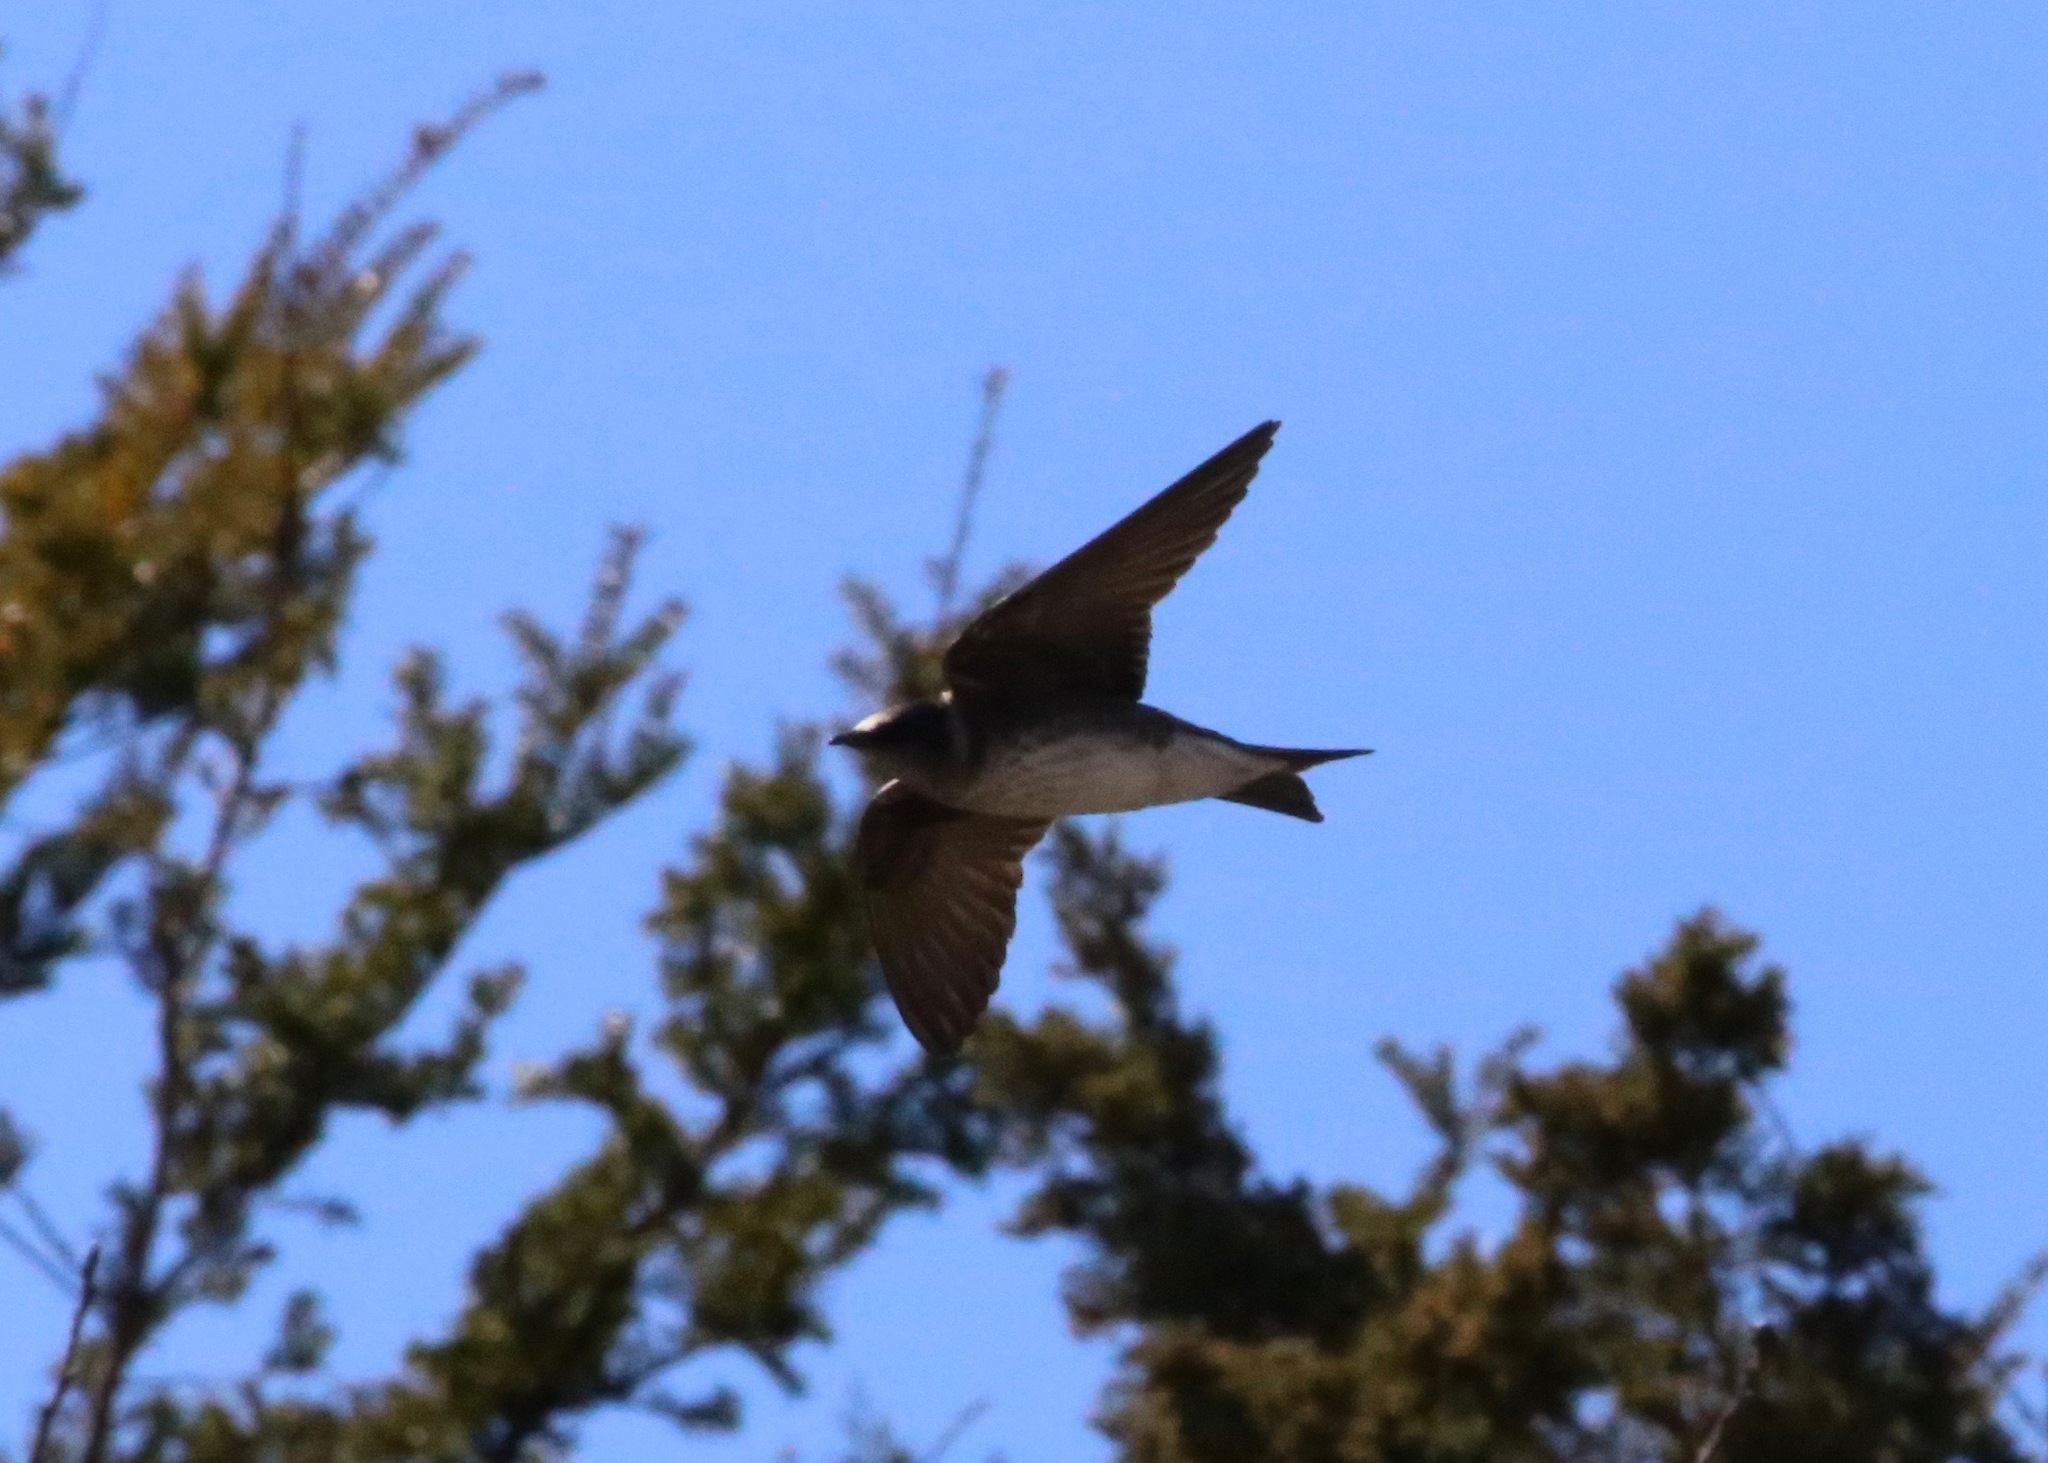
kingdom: Animalia
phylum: Chordata
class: Aves
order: Passeriformes
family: Hirundinidae
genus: Progne
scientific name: Progne subis
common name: Purple martin
